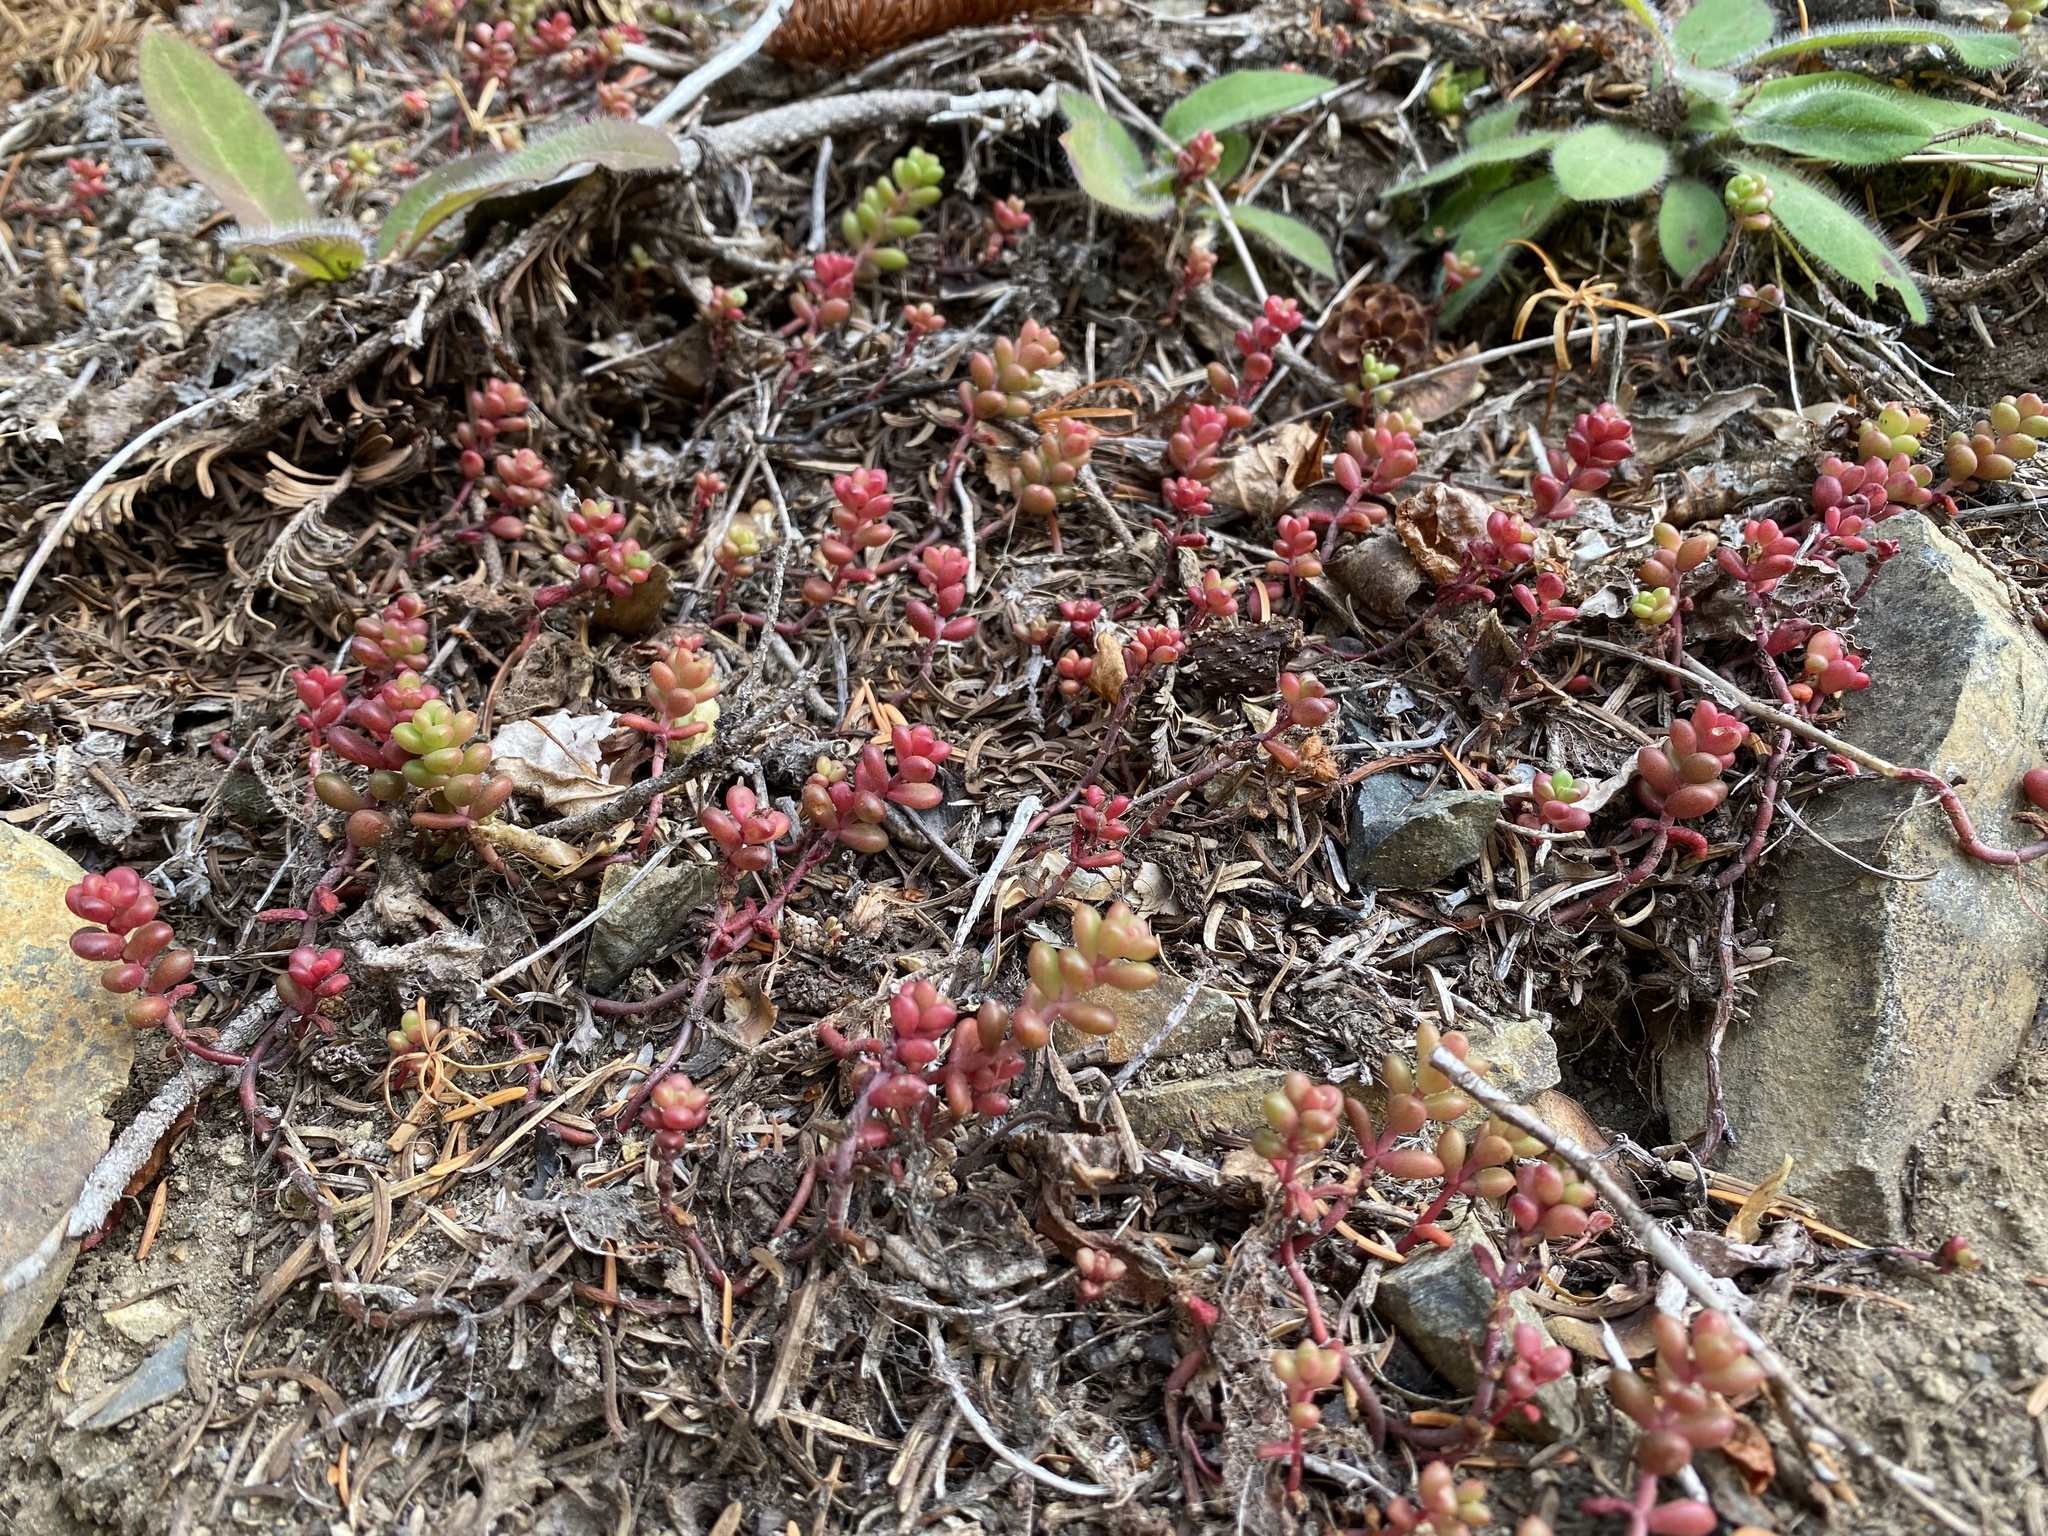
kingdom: Plantae
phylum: Tracheophyta
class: Magnoliopsida
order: Saxifragales
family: Crassulaceae
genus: Sedum
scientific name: Sedum divergens
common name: Cascade stonecrop
